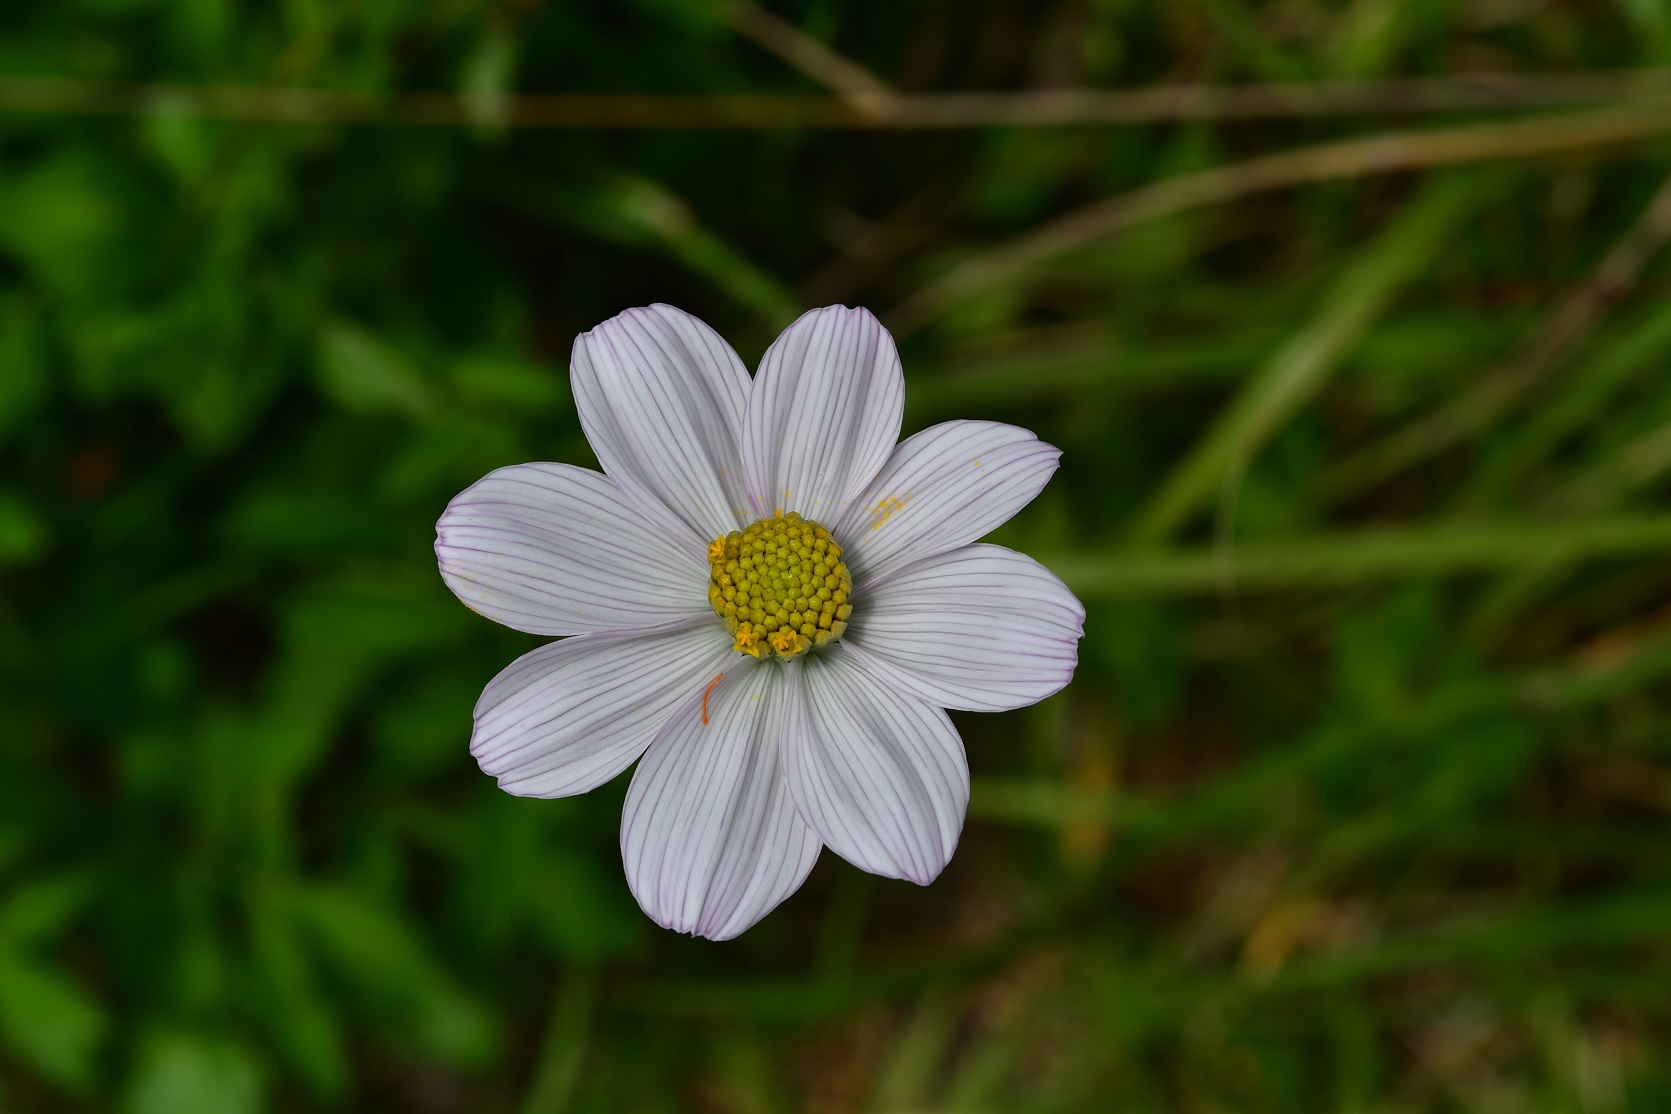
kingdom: Plantae
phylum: Tracheophyta
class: Magnoliopsida
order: Asterales
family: Asteraceae
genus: Cosmos
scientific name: Cosmos diversifolius
